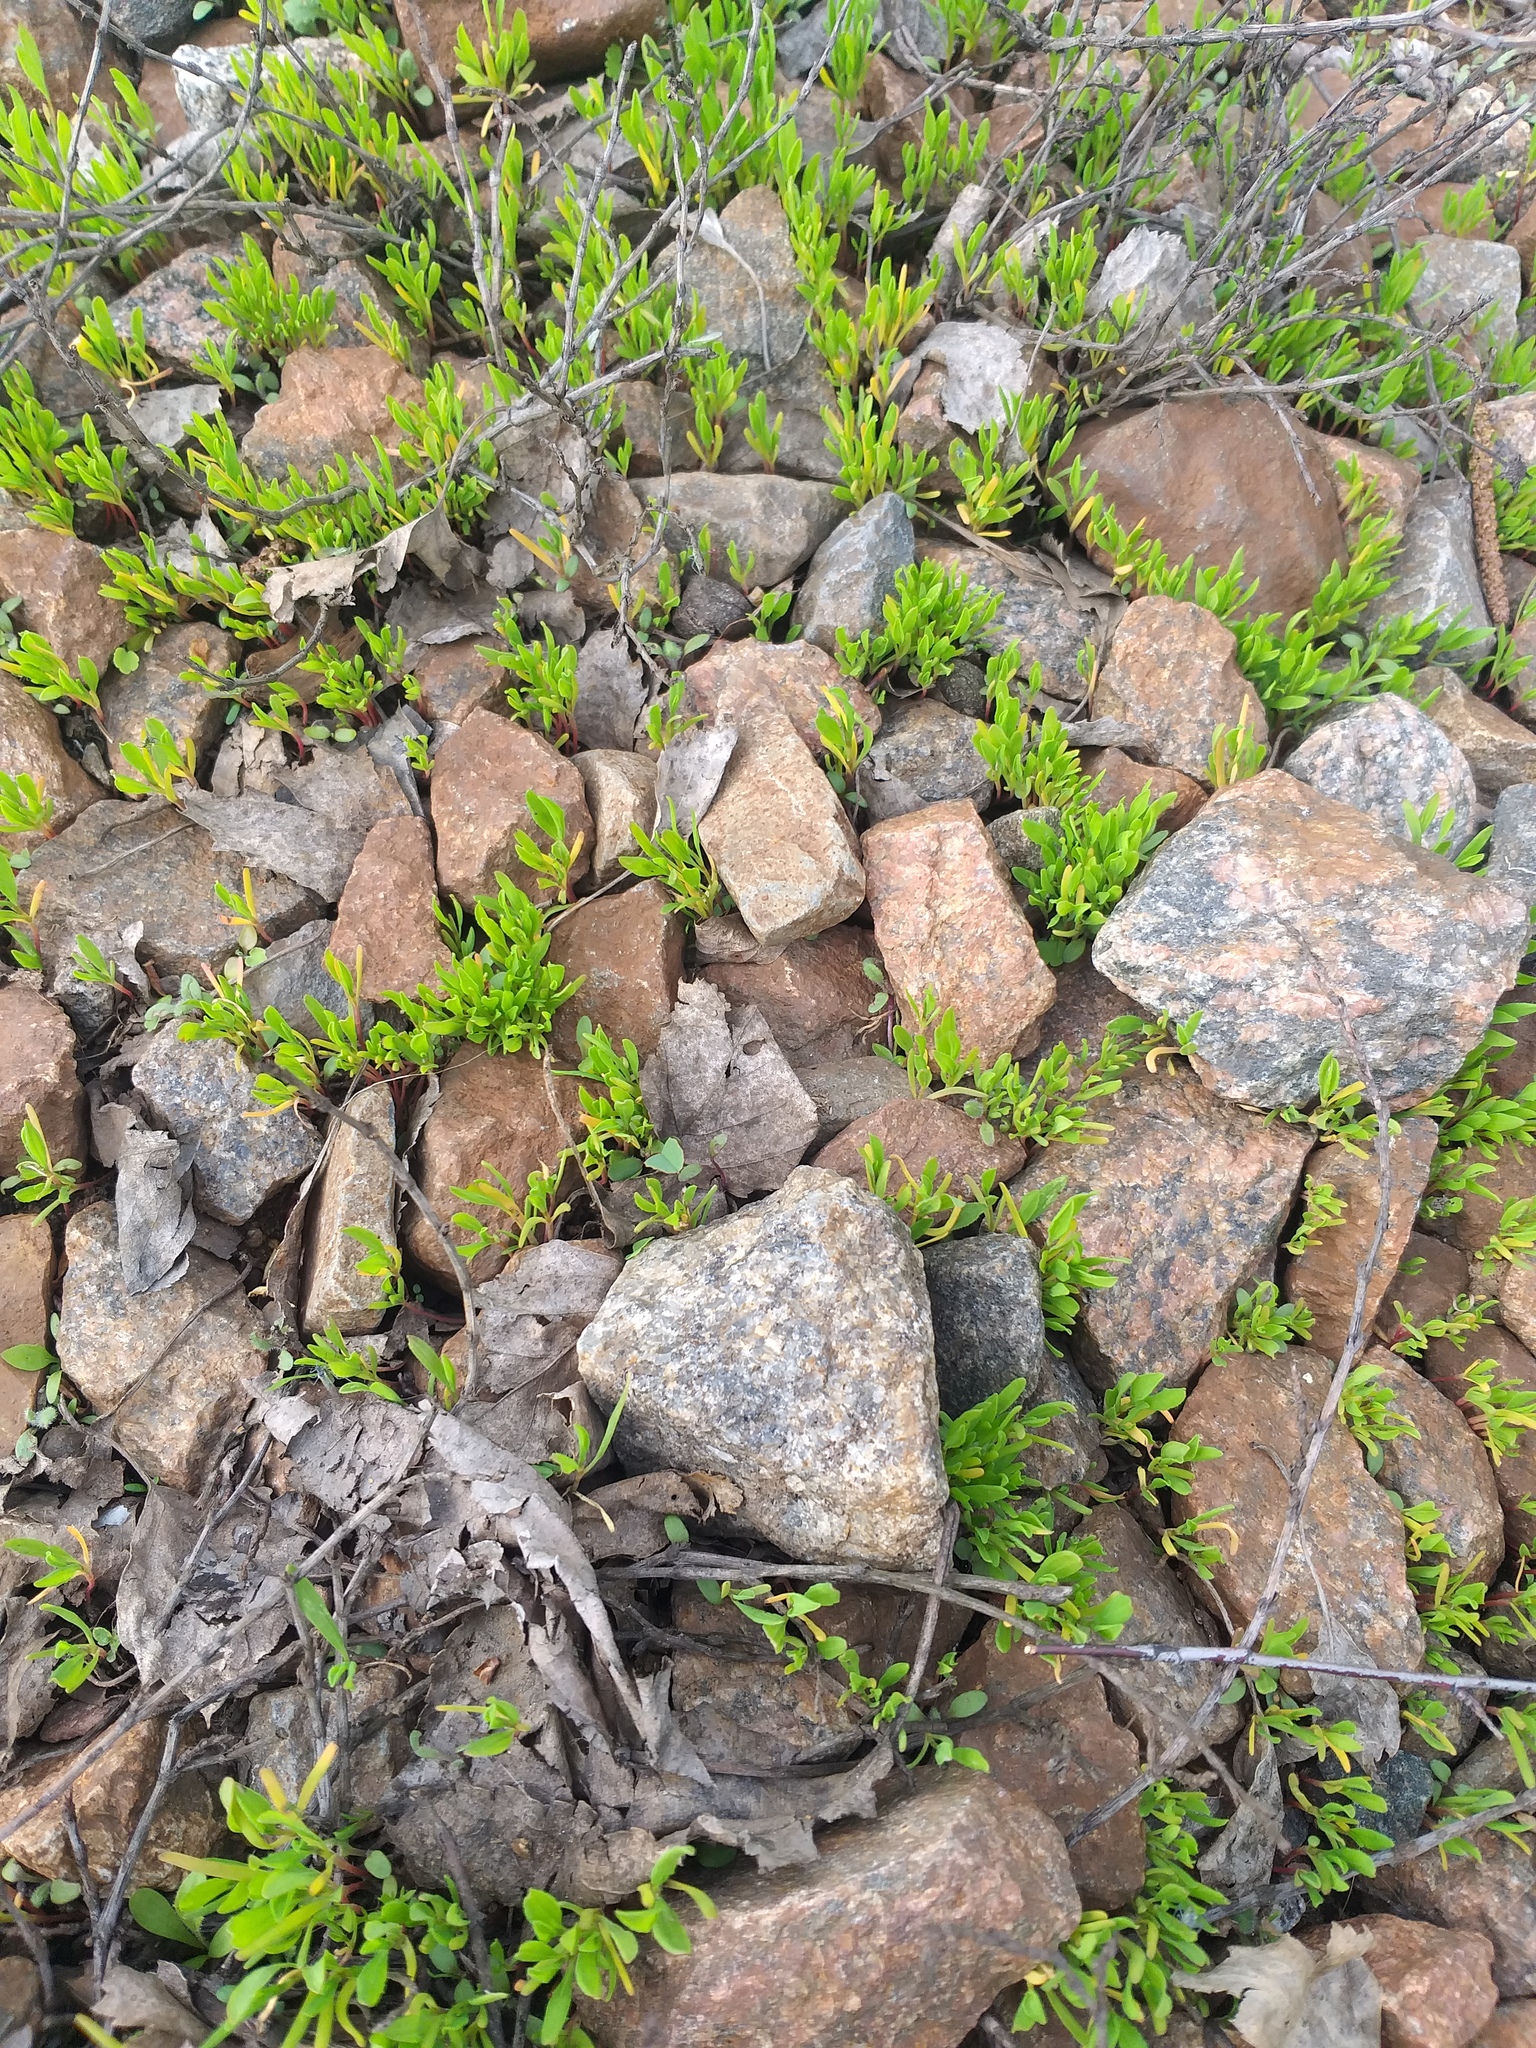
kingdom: Plantae
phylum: Tracheophyta
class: Magnoliopsida
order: Caryophyllales
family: Polygonaceae
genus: Polygonum
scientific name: Polygonum
